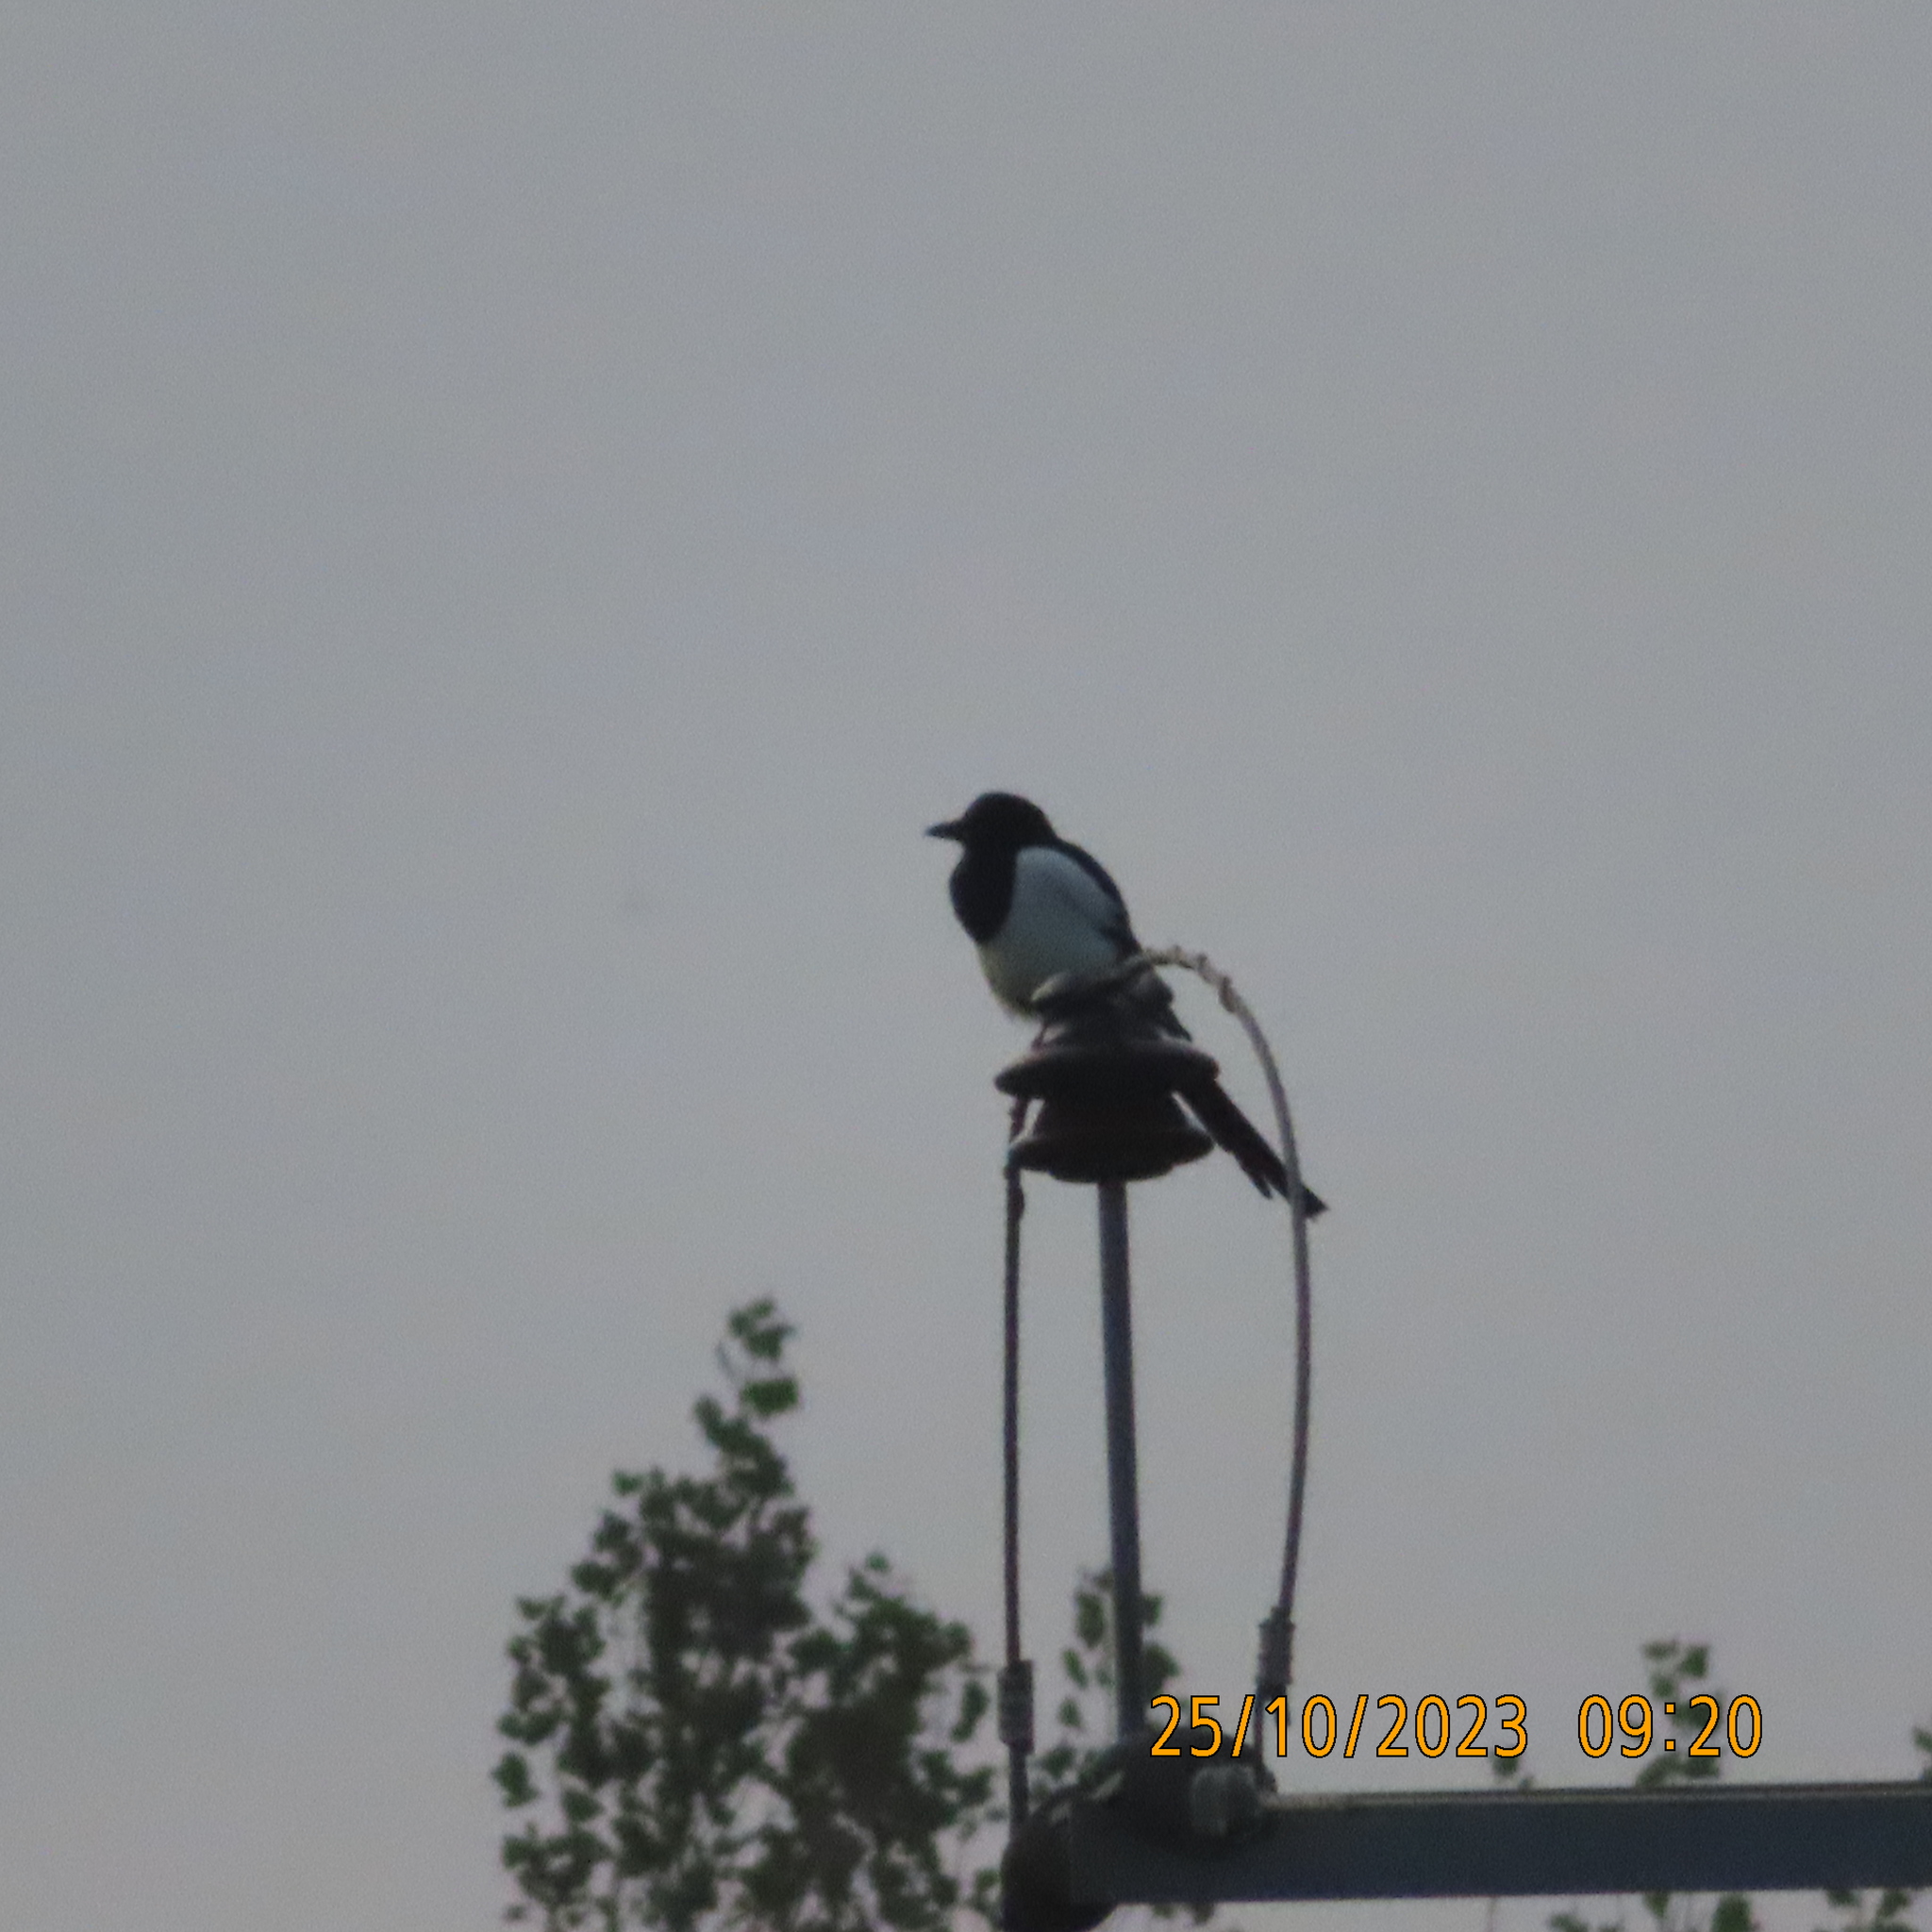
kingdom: Animalia
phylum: Chordata
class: Aves
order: Passeriformes
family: Corvidae
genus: Pica
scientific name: Pica pica
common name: Eurasian magpie
